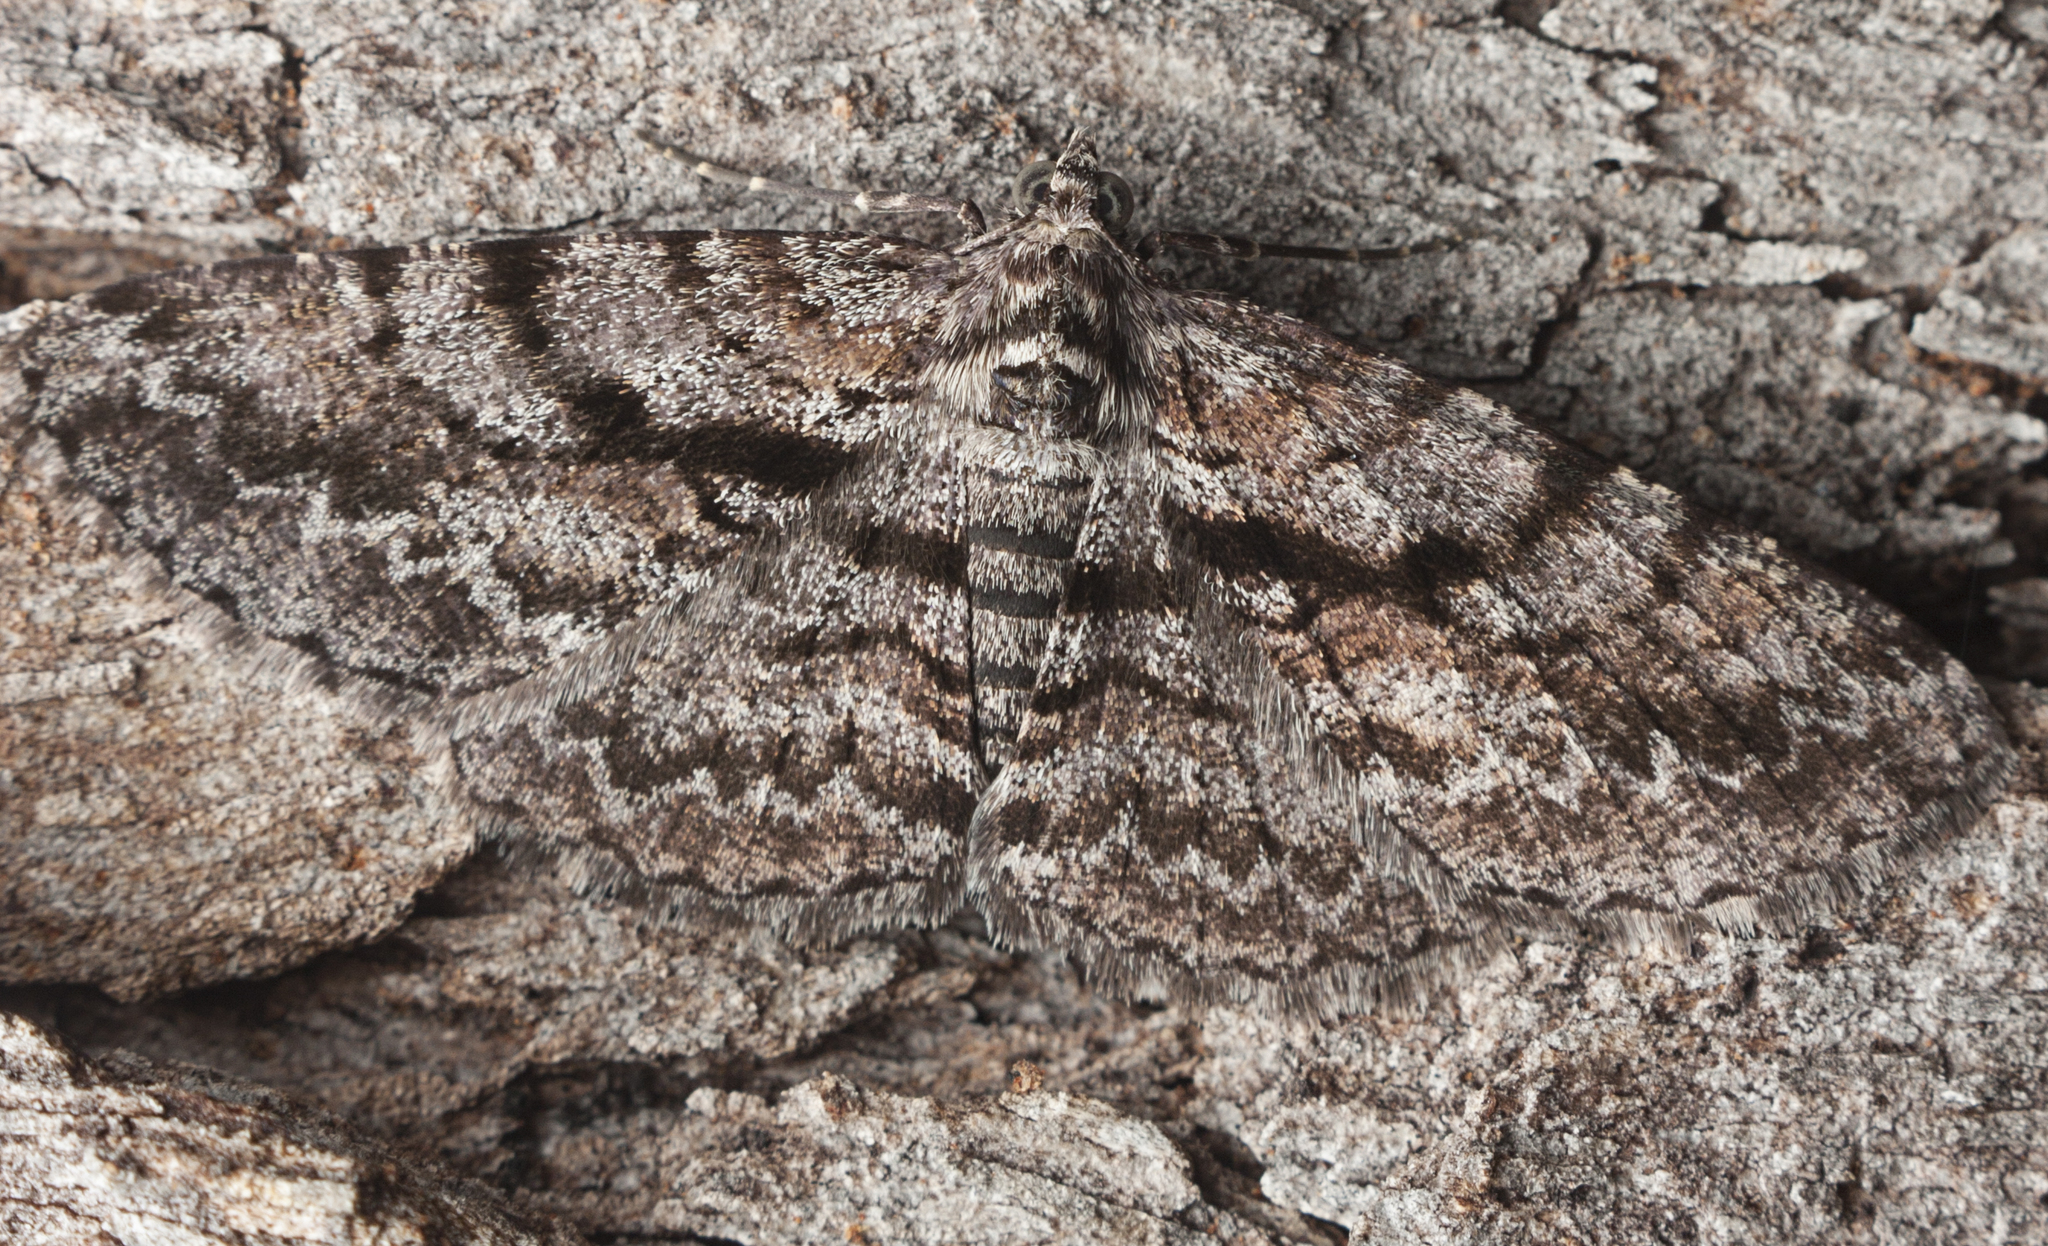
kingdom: Animalia
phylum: Arthropoda
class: Insecta
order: Lepidoptera
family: Geometridae
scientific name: Geometridae
